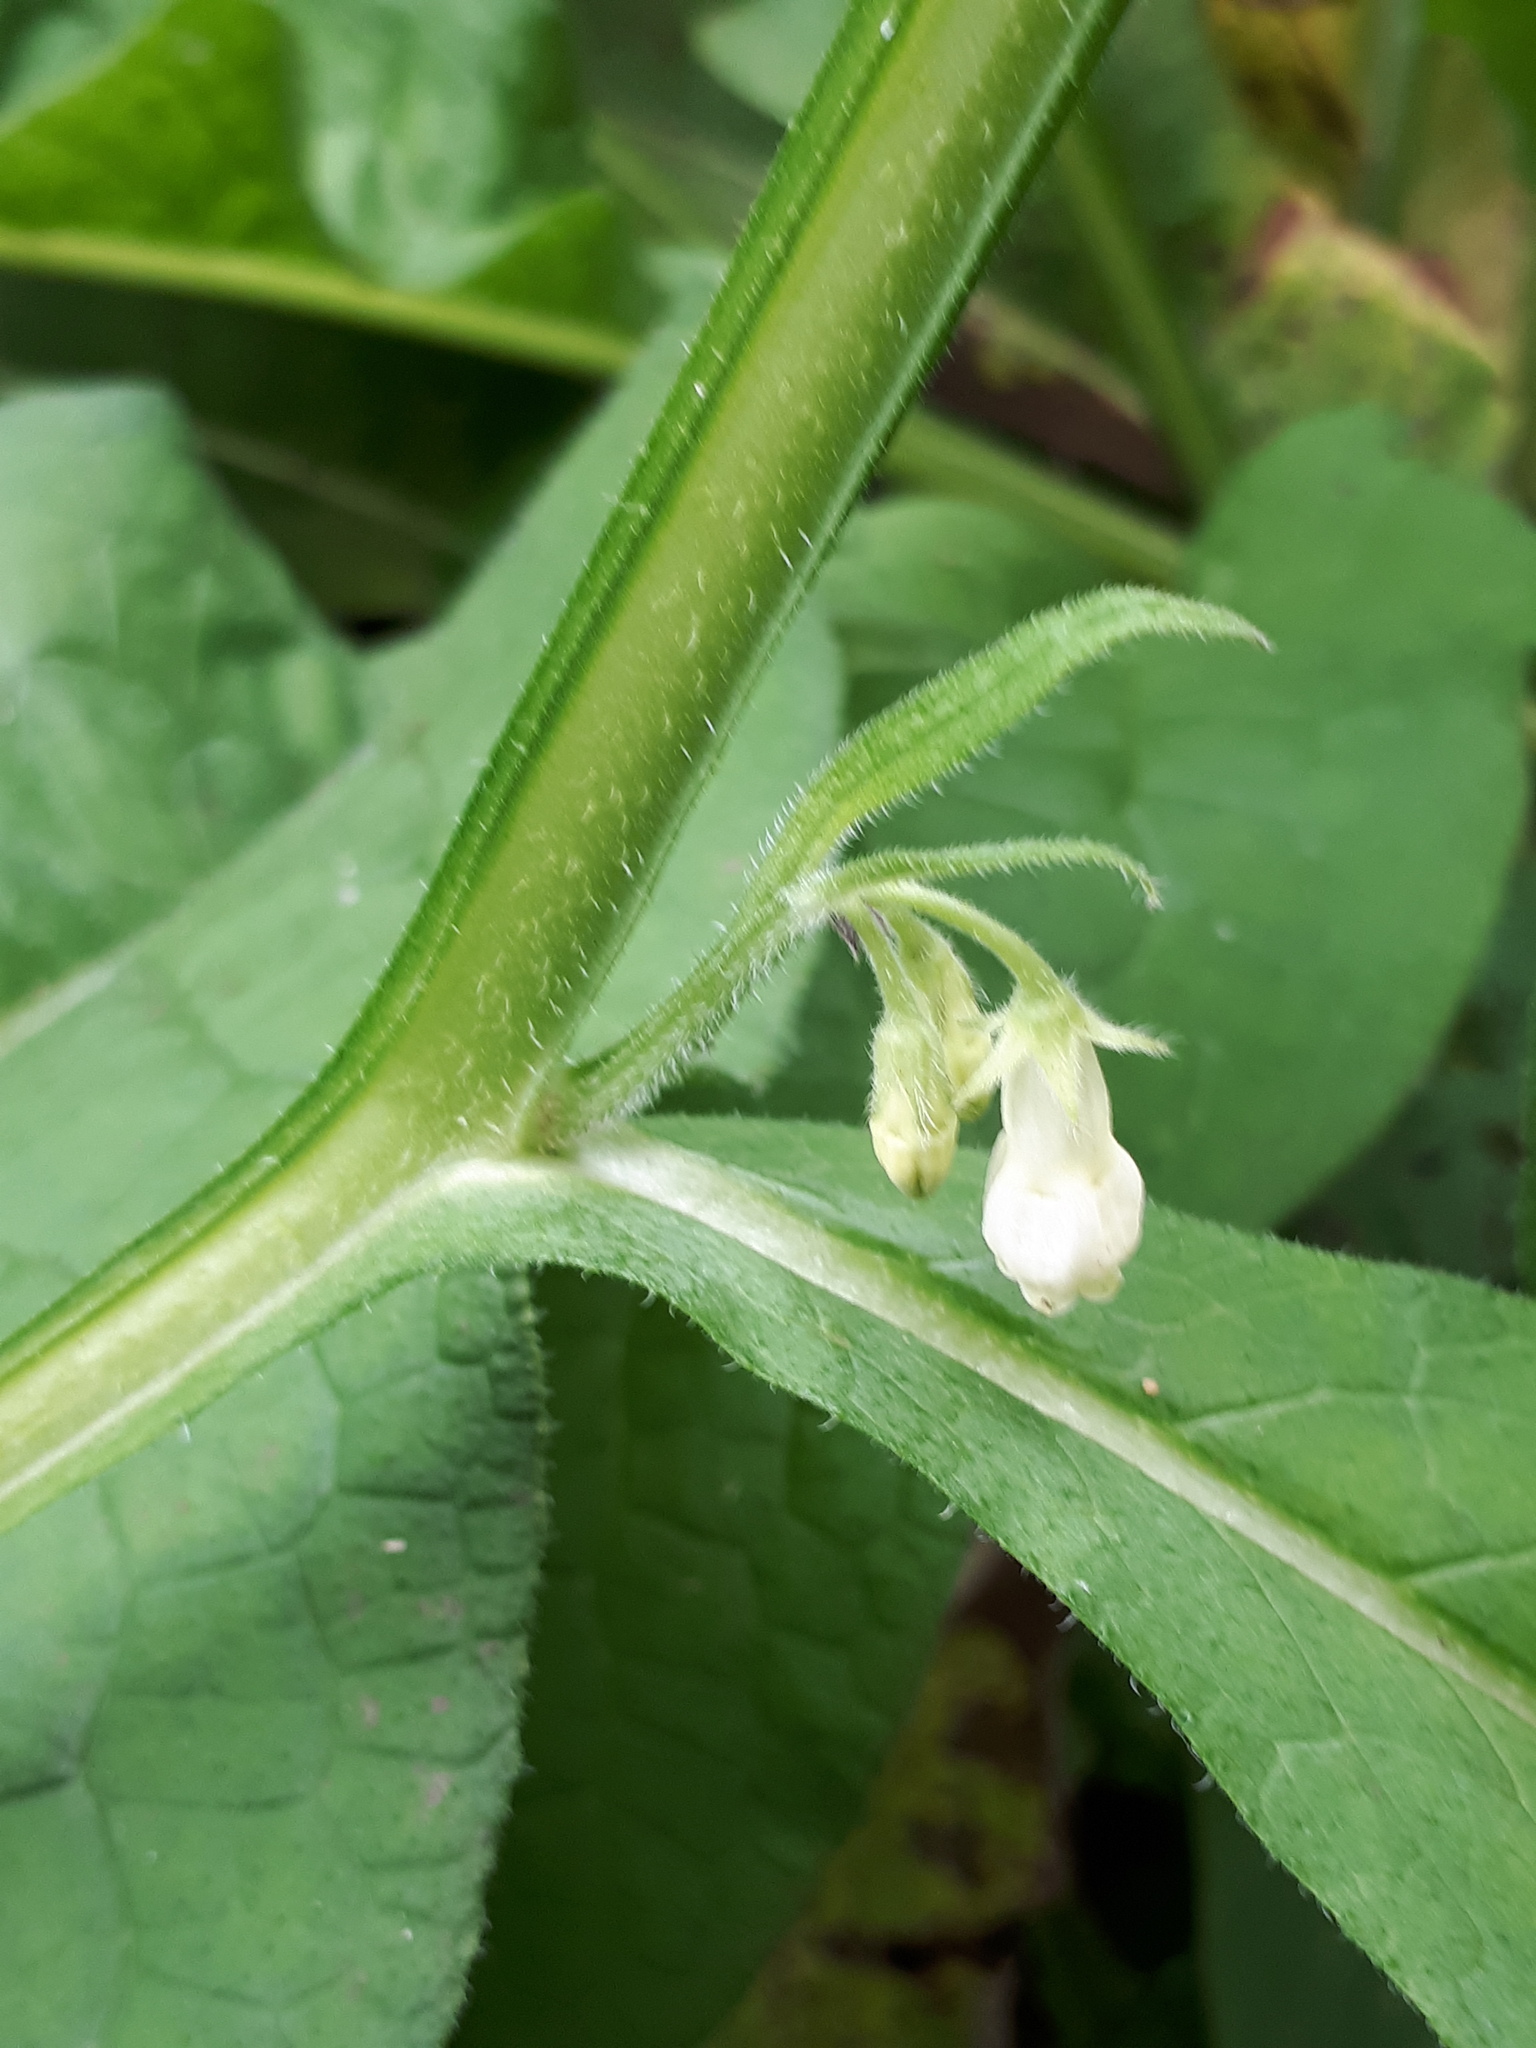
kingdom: Plantae
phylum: Tracheophyta
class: Magnoliopsida
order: Boraginales
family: Boraginaceae
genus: Symphytum
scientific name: Symphytum officinale
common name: Common comfrey
